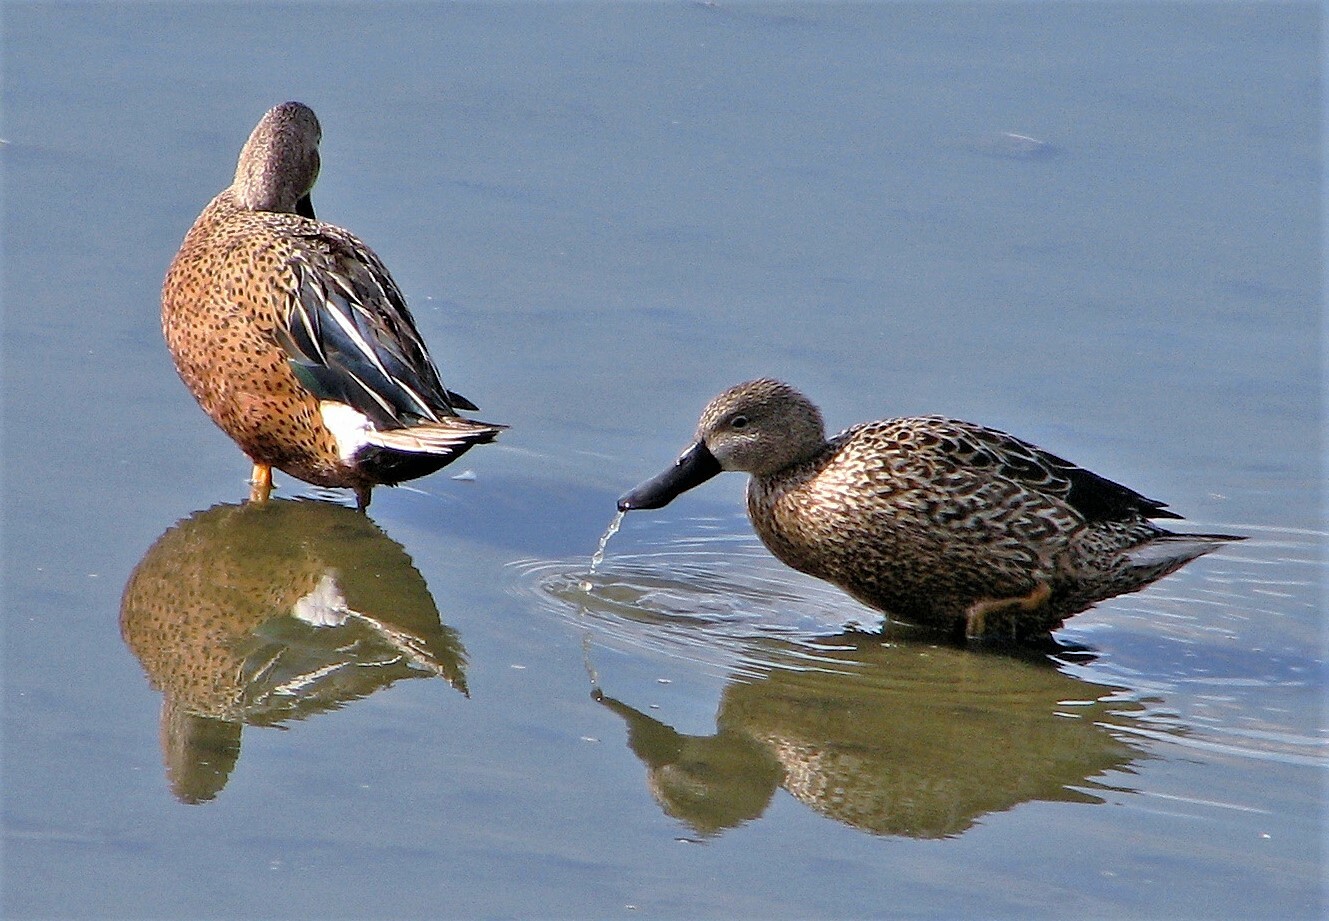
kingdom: Animalia
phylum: Chordata
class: Aves
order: Anseriformes
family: Anatidae
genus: Spatula
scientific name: Spatula platalea
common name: Red shoveler
